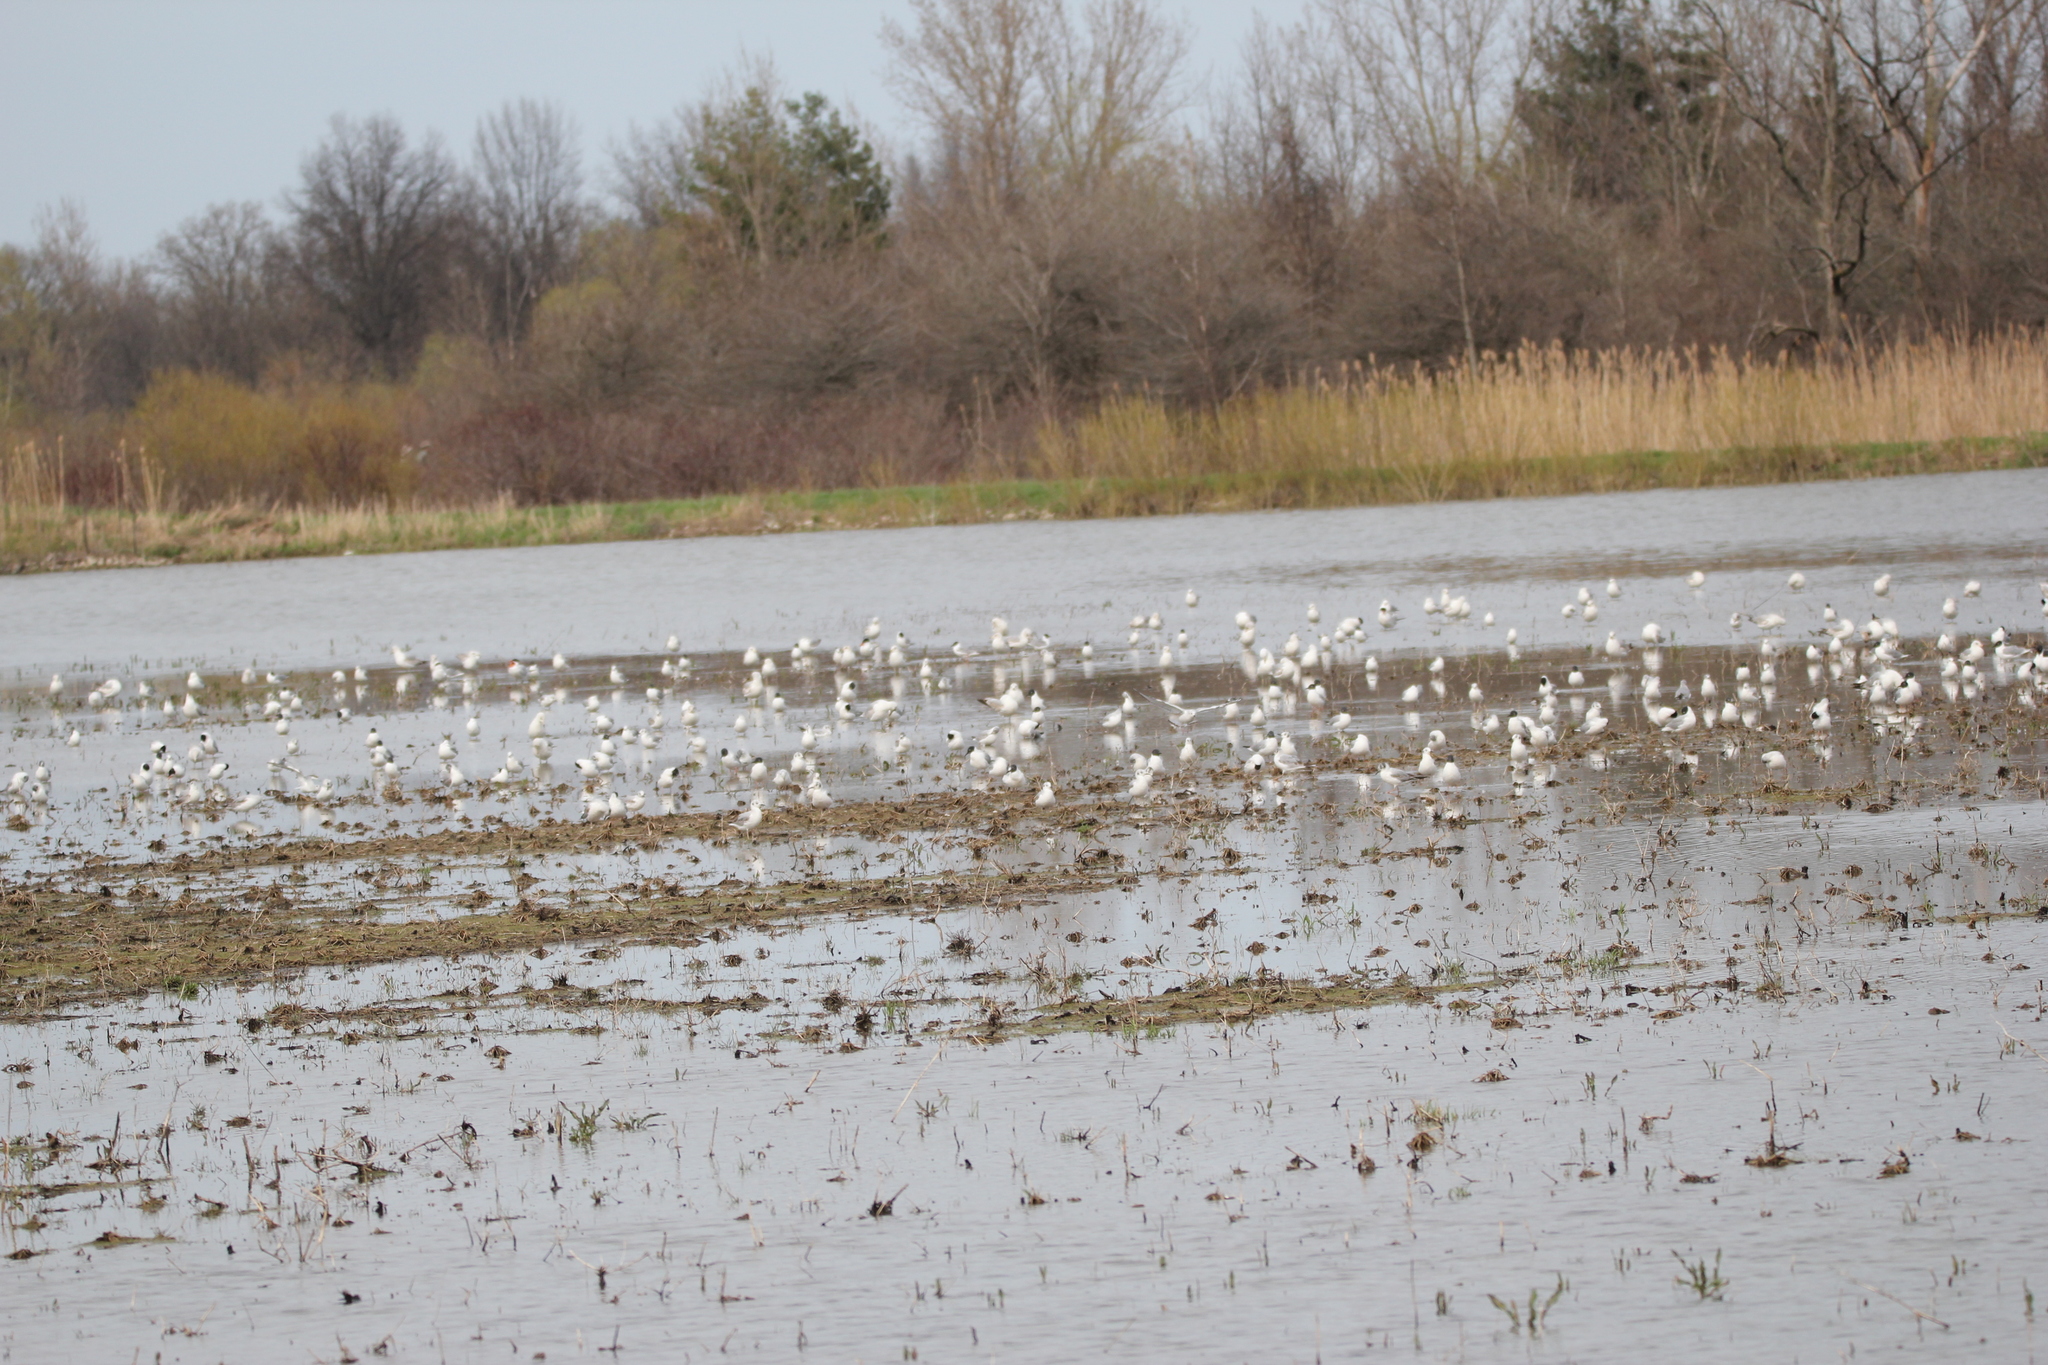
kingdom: Animalia
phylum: Chordata
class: Aves
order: Charadriiformes
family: Laridae
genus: Chroicocephalus
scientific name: Chroicocephalus philadelphia
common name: Bonaparte's gull
